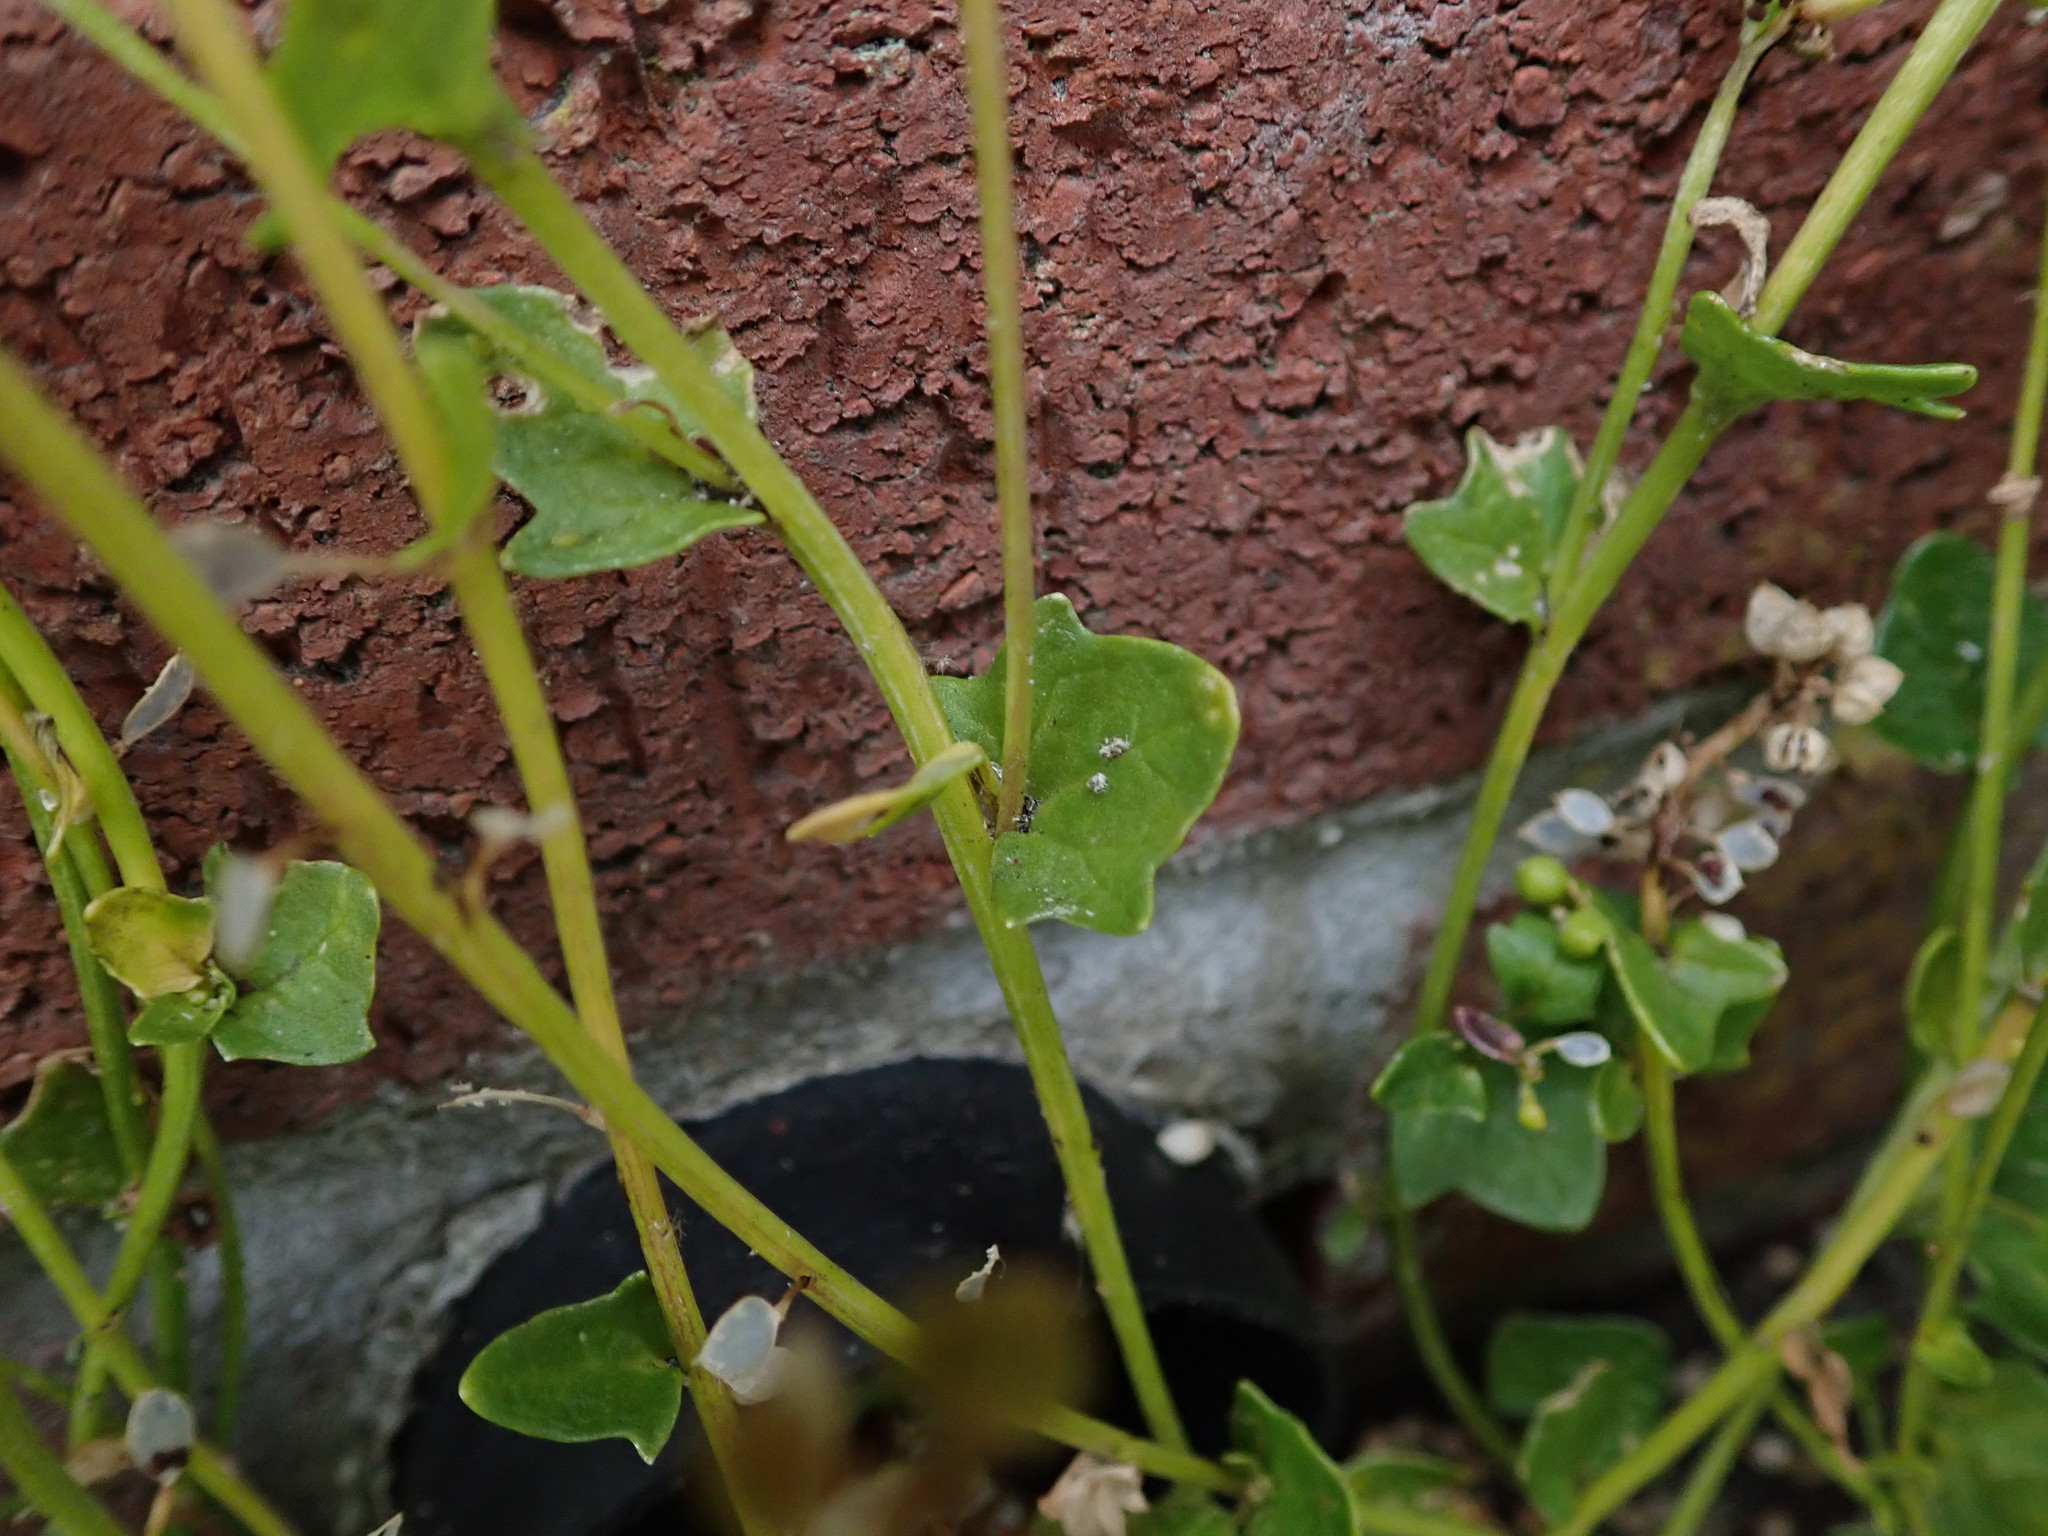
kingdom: Plantae
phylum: Tracheophyta
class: Magnoliopsida
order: Brassicales
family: Brassicaceae
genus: Cochlearia
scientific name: Cochlearia danica
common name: Early scurvygrass
